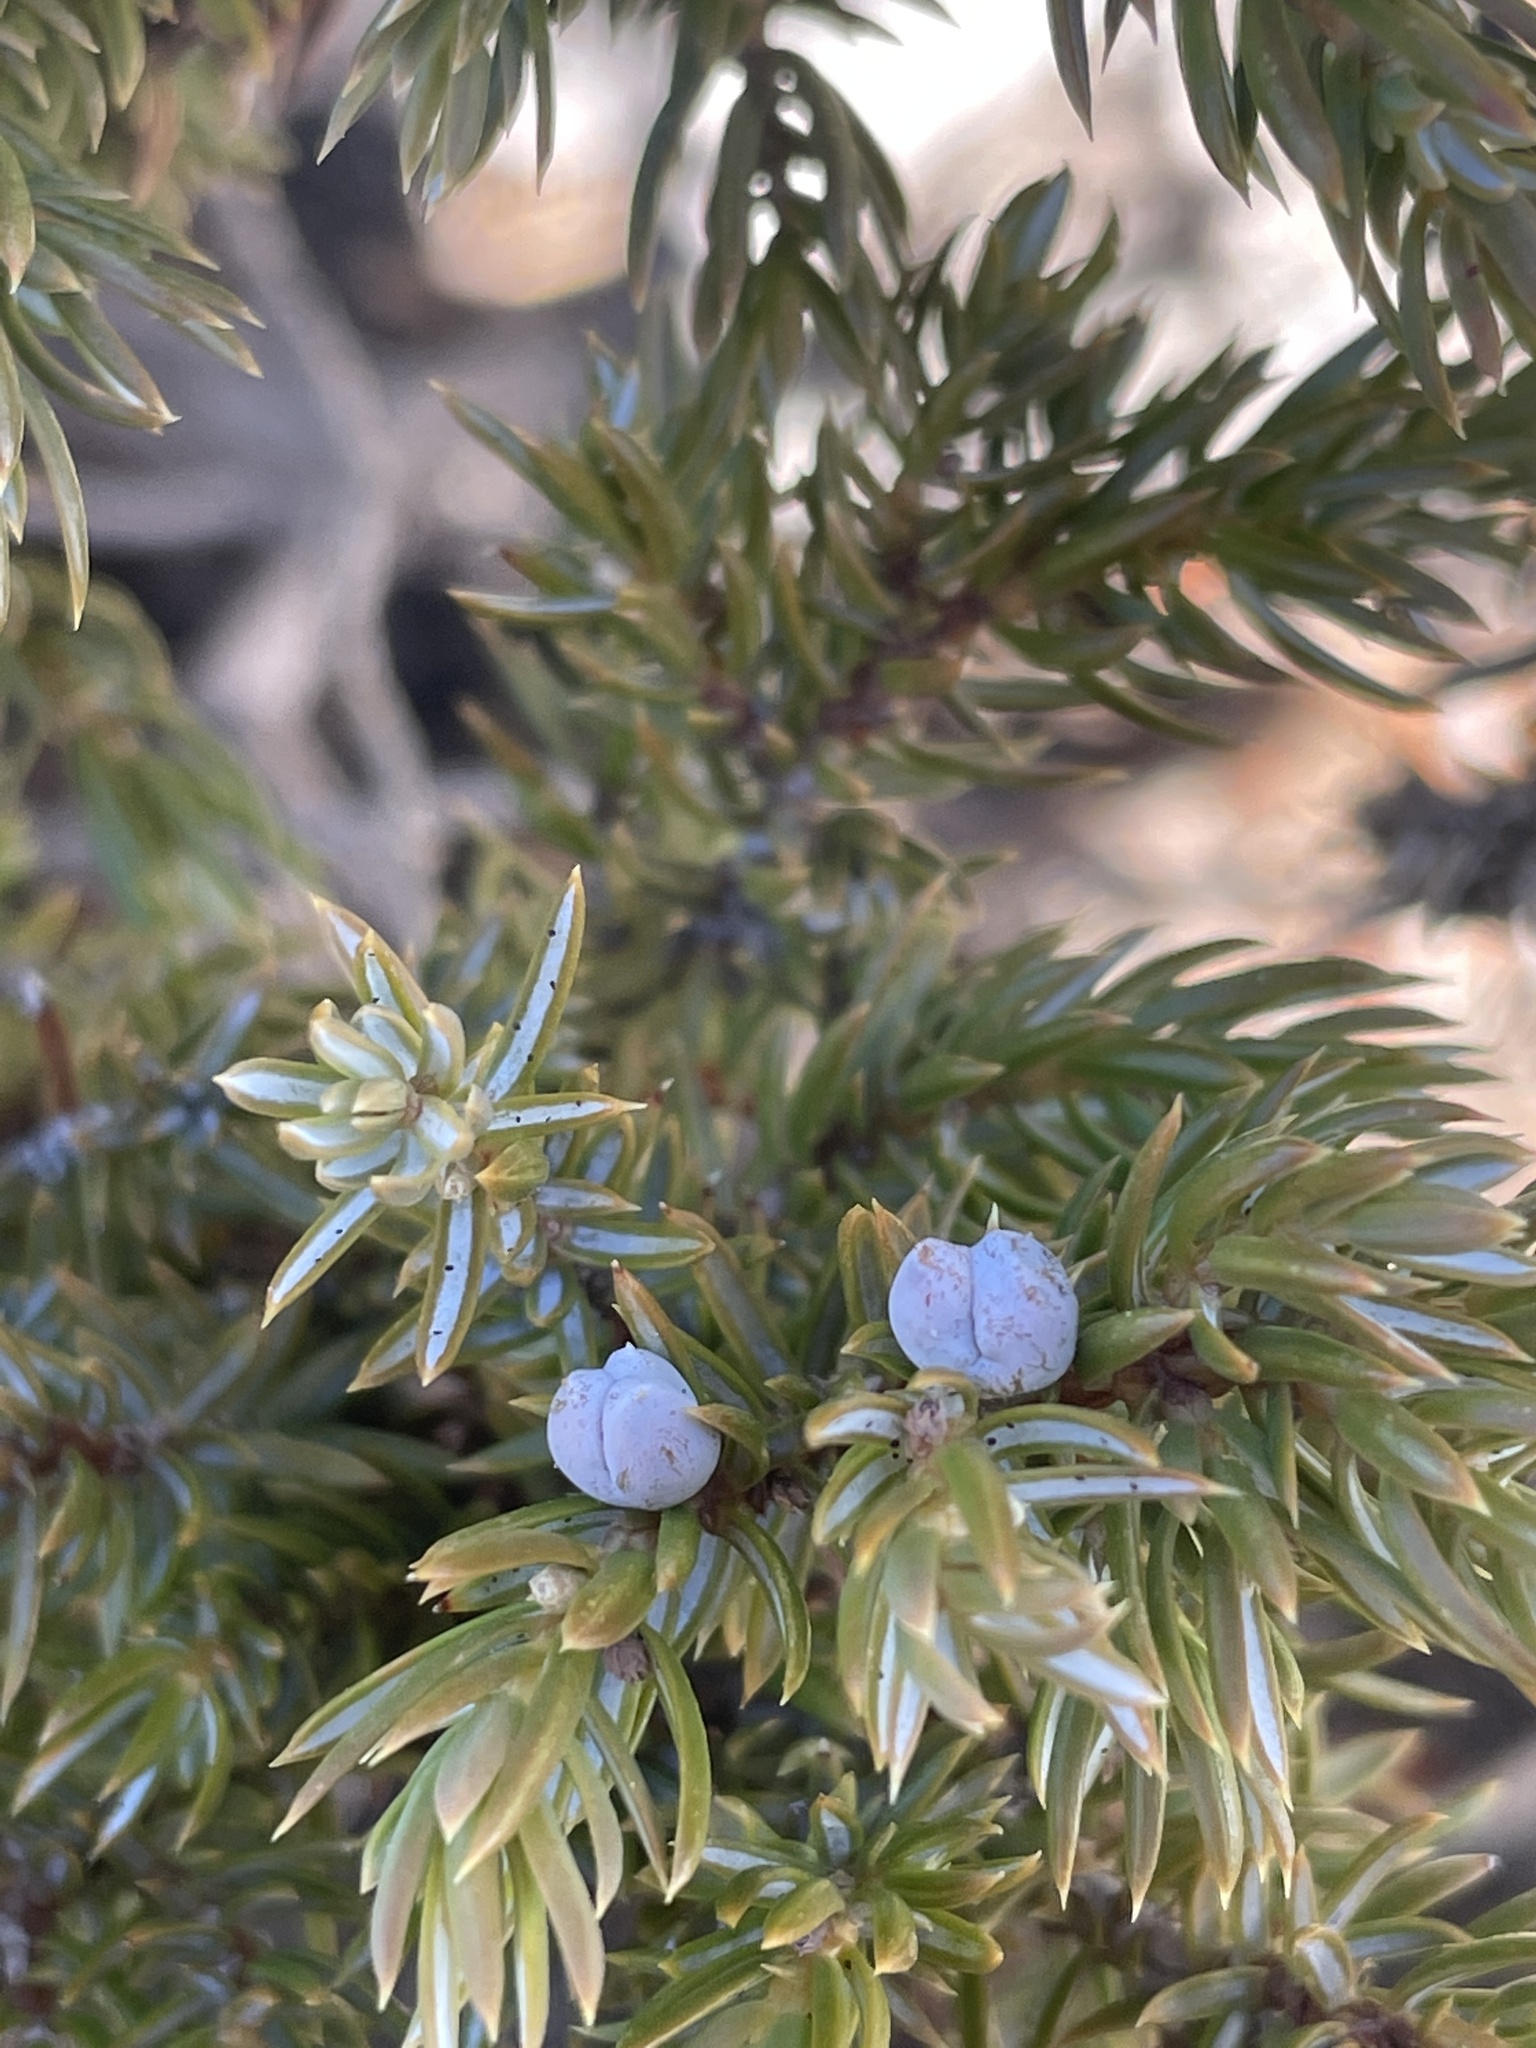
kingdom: Plantae
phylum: Tracheophyta
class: Pinopsida
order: Pinales
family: Cupressaceae
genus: Juniperus
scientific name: Juniperus communis
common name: Common juniper
